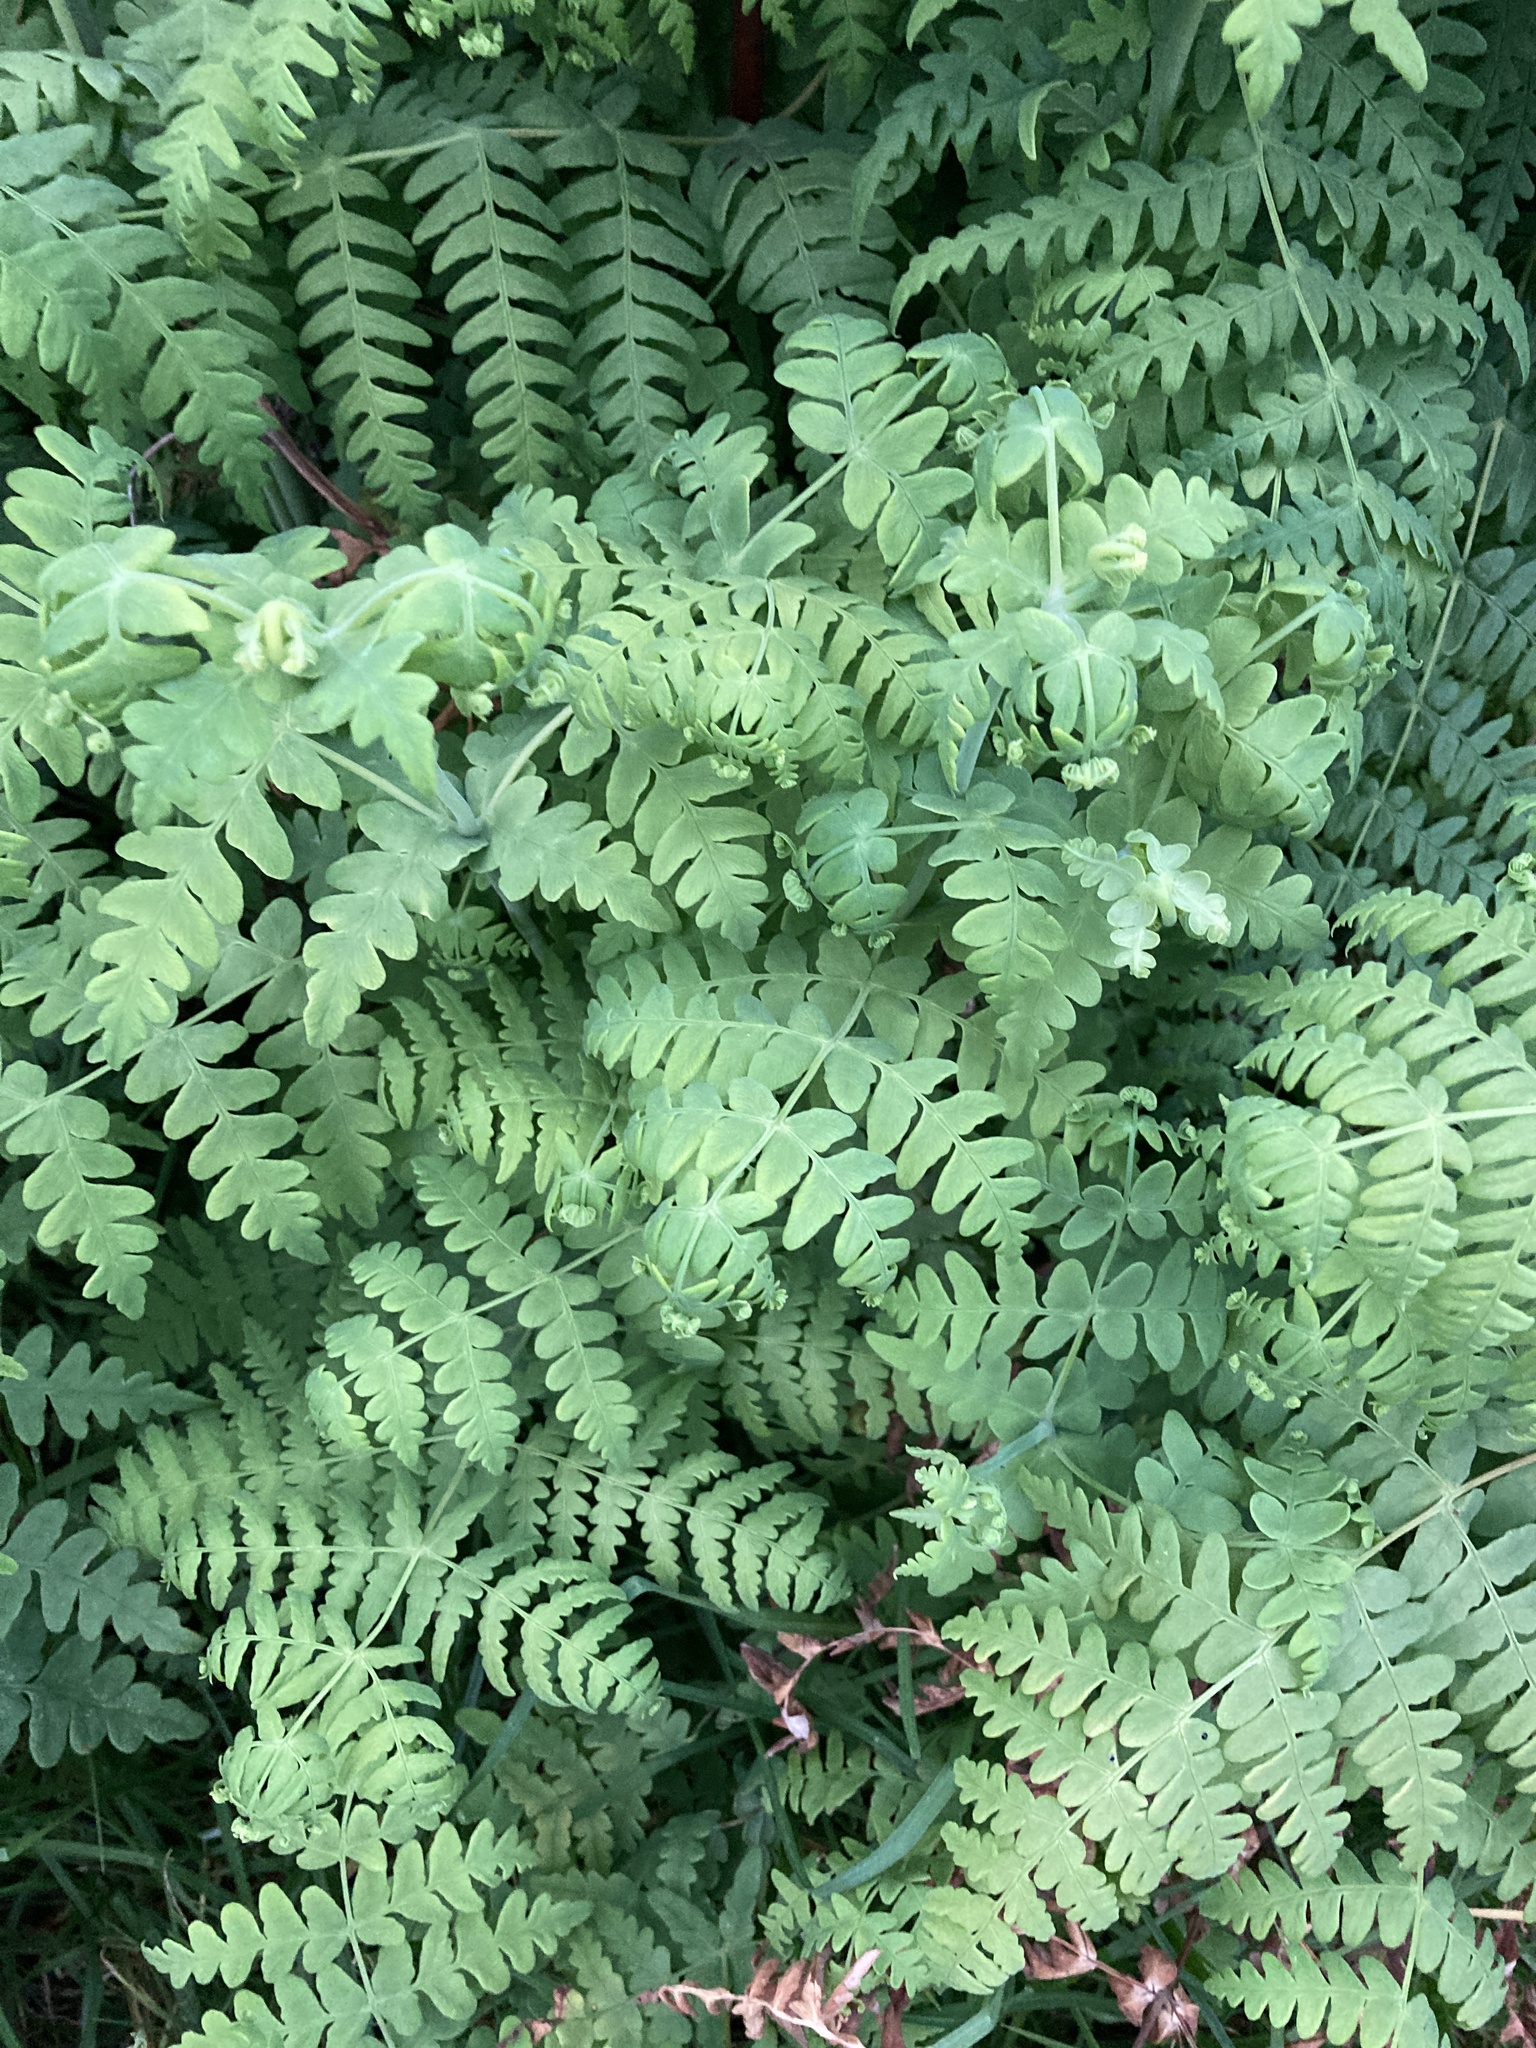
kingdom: Plantae
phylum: Tracheophyta
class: Polypodiopsida
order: Polypodiales
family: Dennstaedtiaceae
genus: Histiopteris
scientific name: Histiopteris incisa
